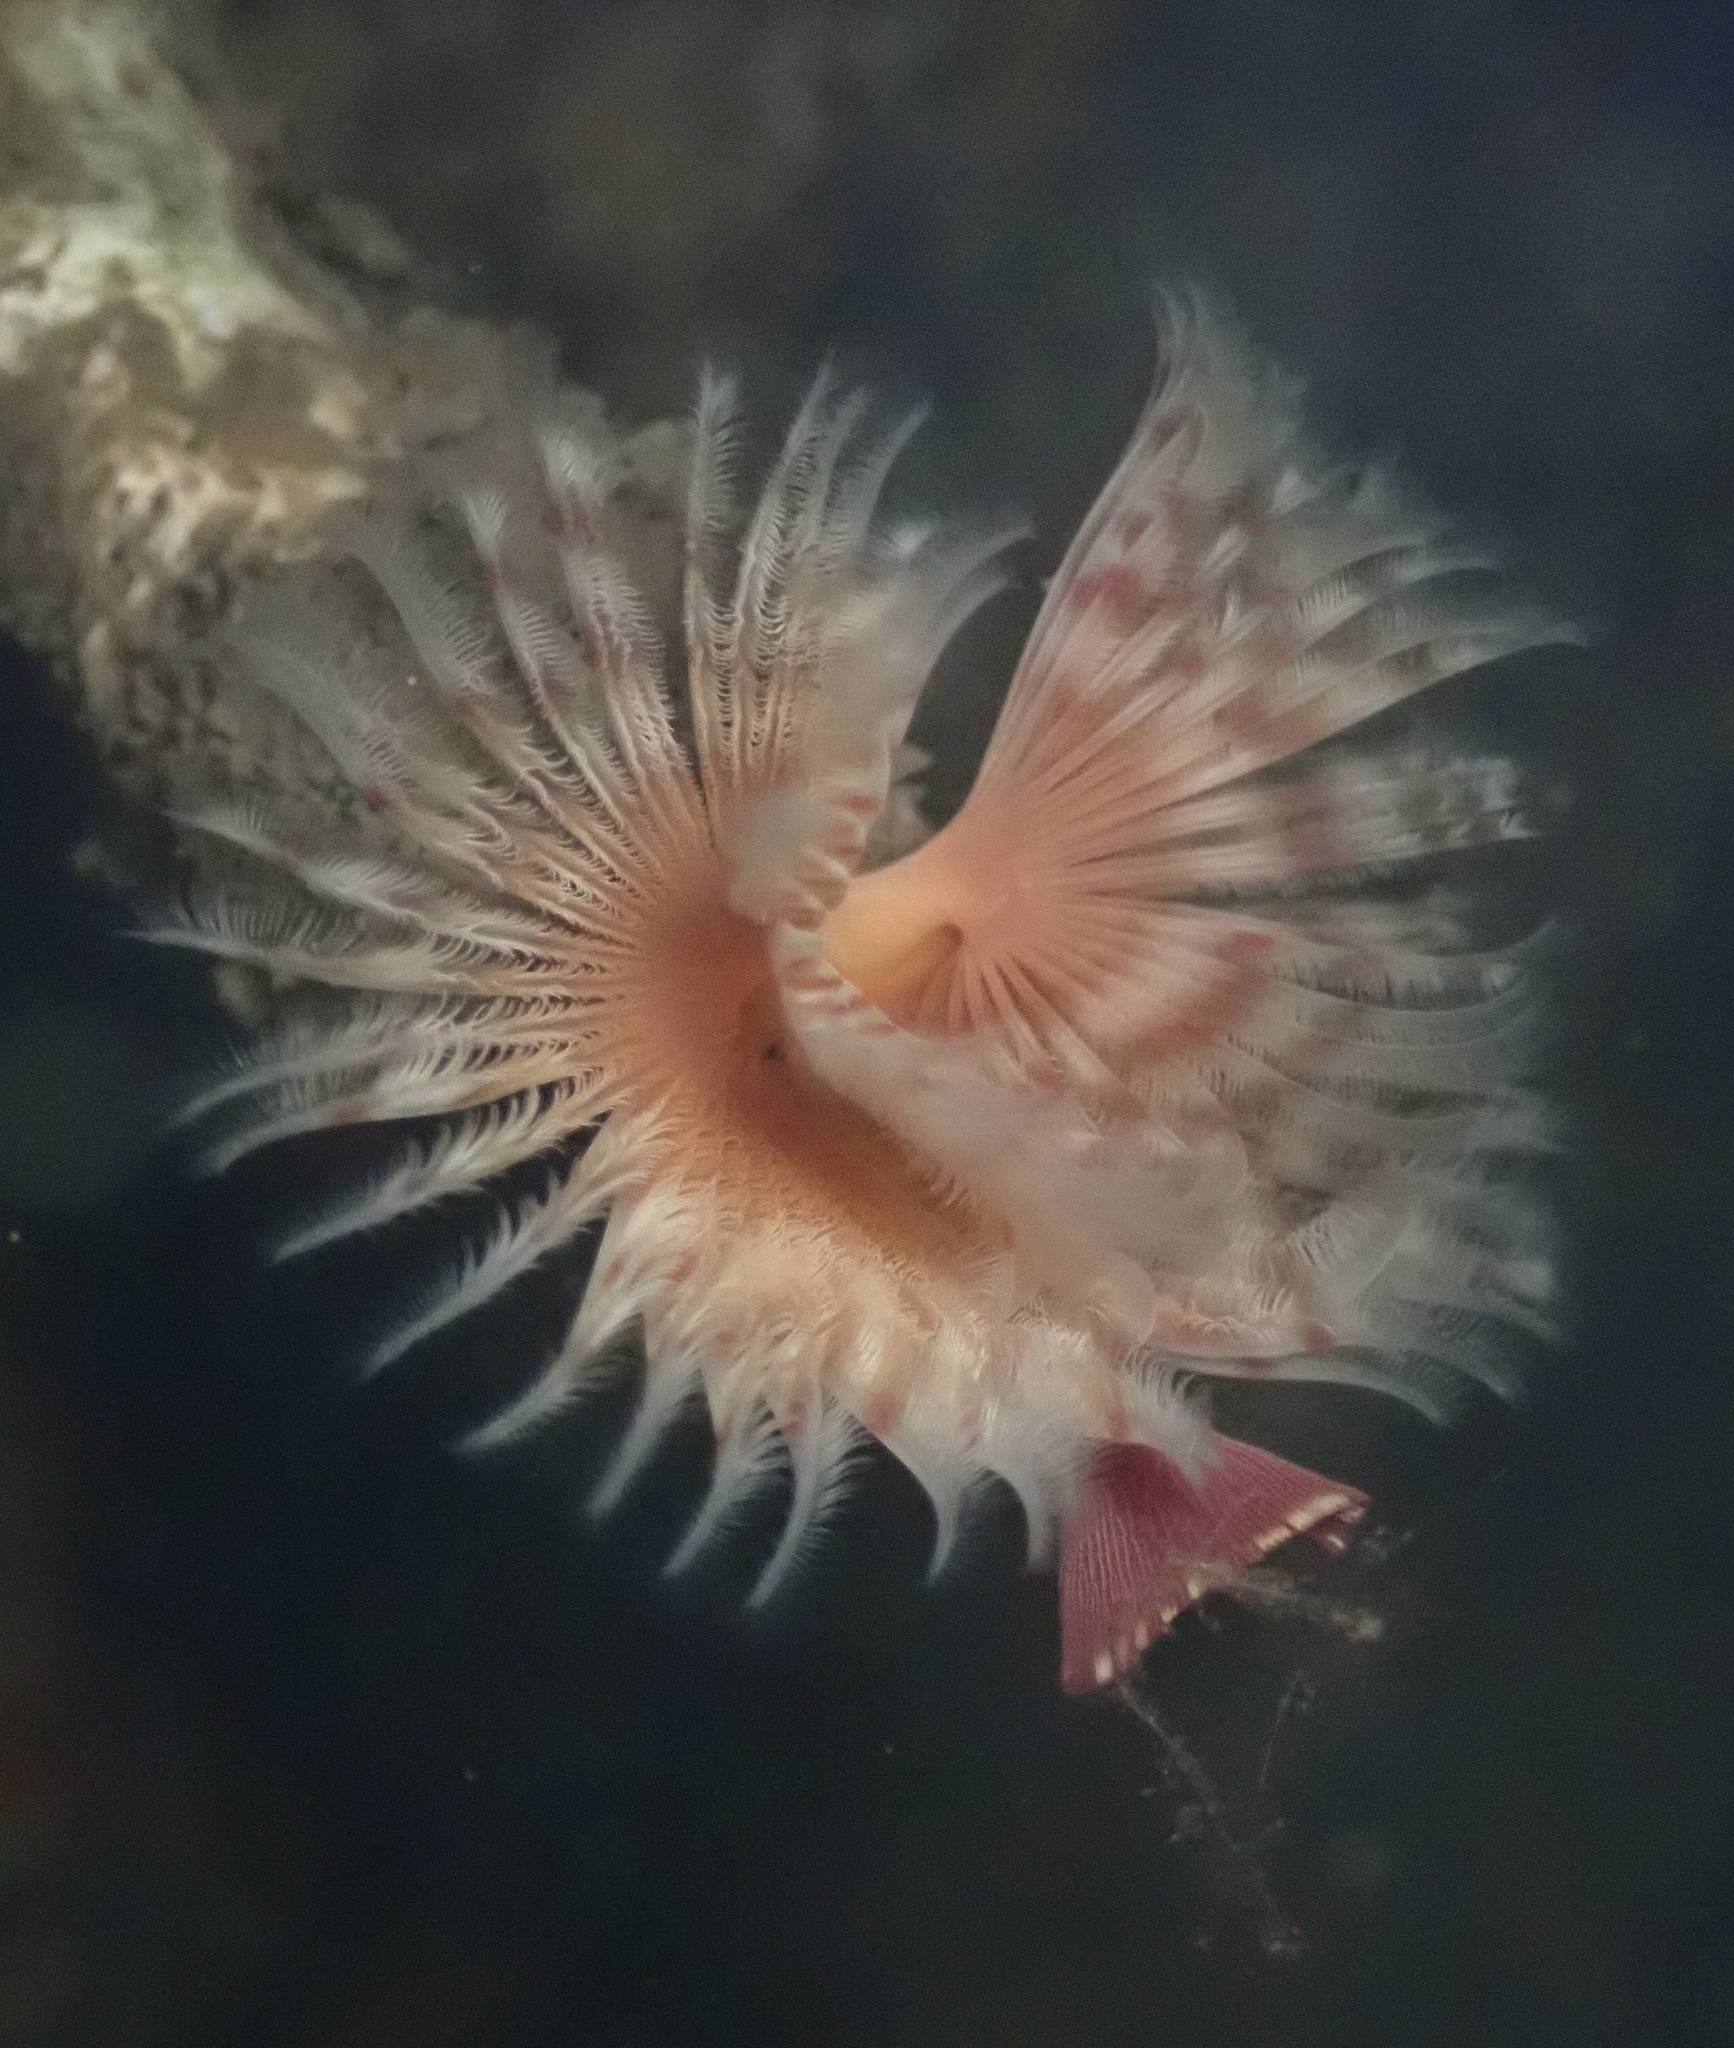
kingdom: Animalia
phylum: Annelida
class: Polychaeta
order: Sabellida
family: Serpulidae
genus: Serpula
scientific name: Serpula columbiana
